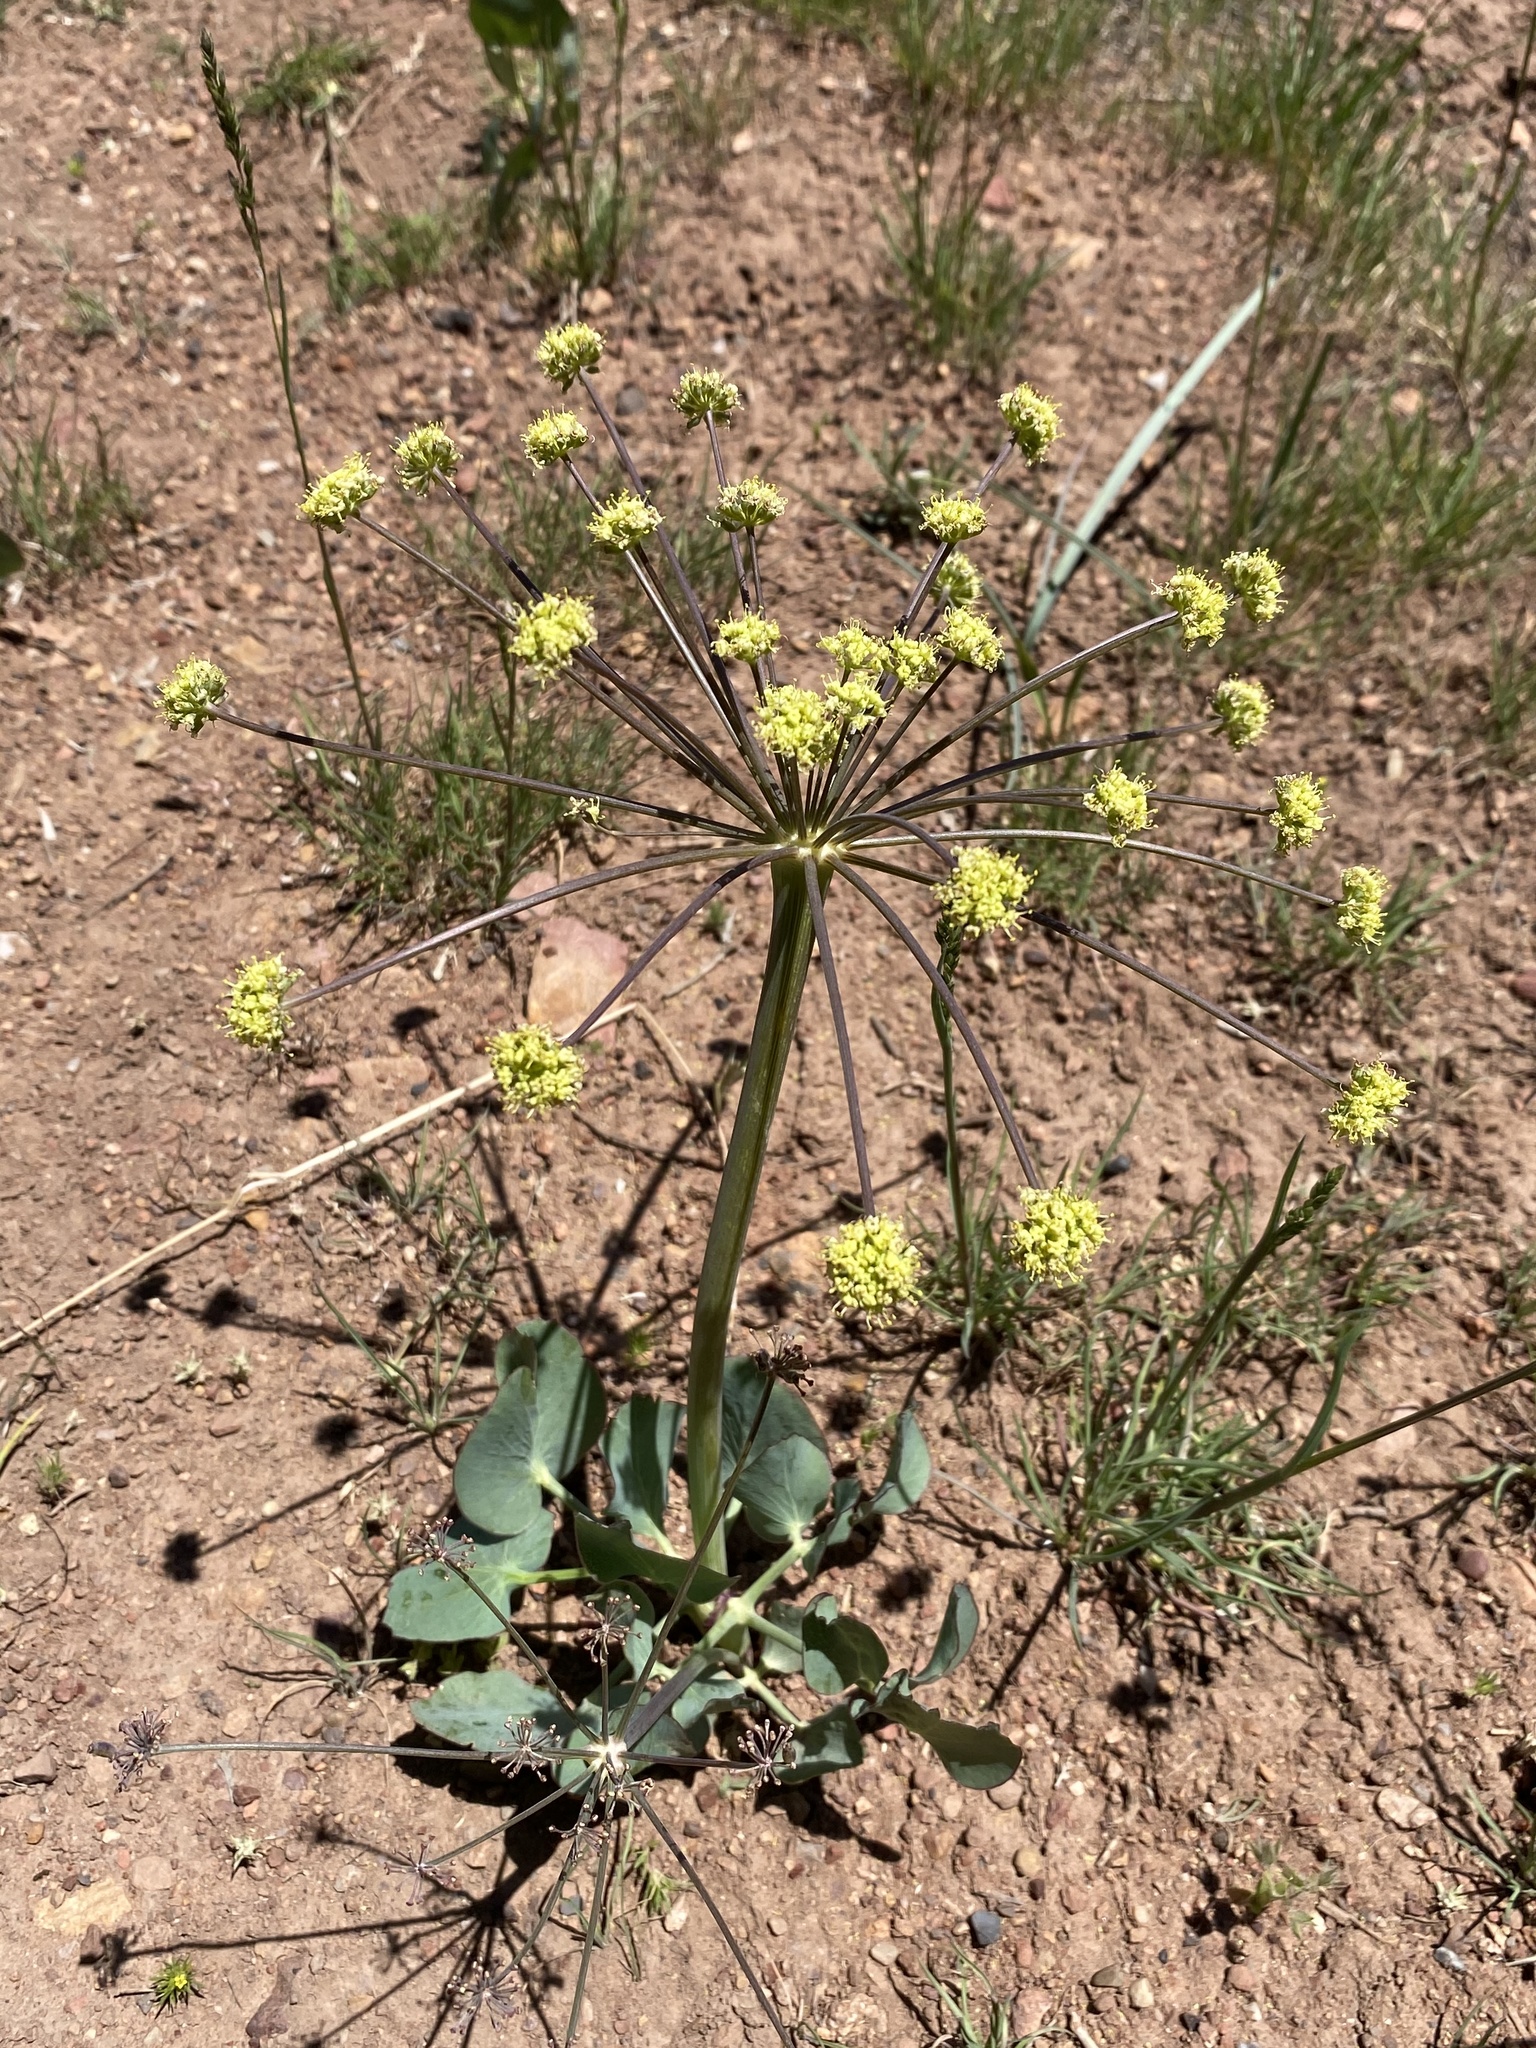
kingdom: Plantae
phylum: Tracheophyta
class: Magnoliopsida
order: Apiales
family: Apiaceae
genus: Lomatium
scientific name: Lomatium nudicaule
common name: Pestle lomatium
